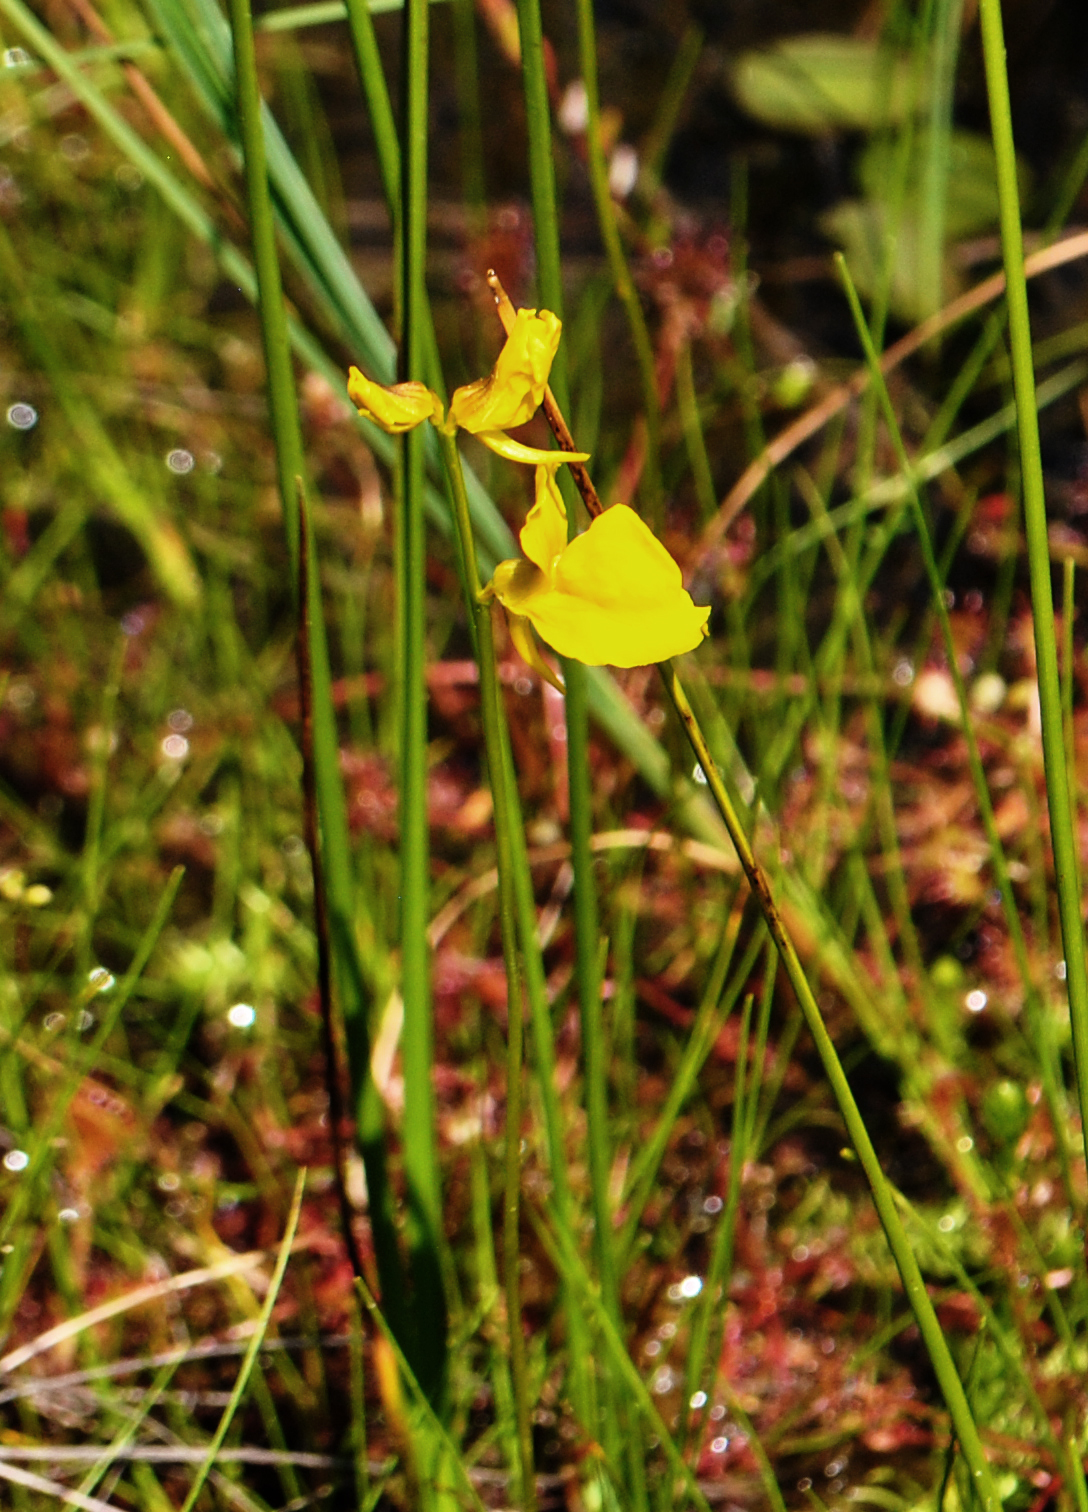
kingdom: Plantae
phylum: Tracheophyta
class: Magnoliopsida
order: Lamiales
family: Lentibulariaceae
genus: Utricularia
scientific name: Utricularia cornuta
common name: Horned bladderwort
